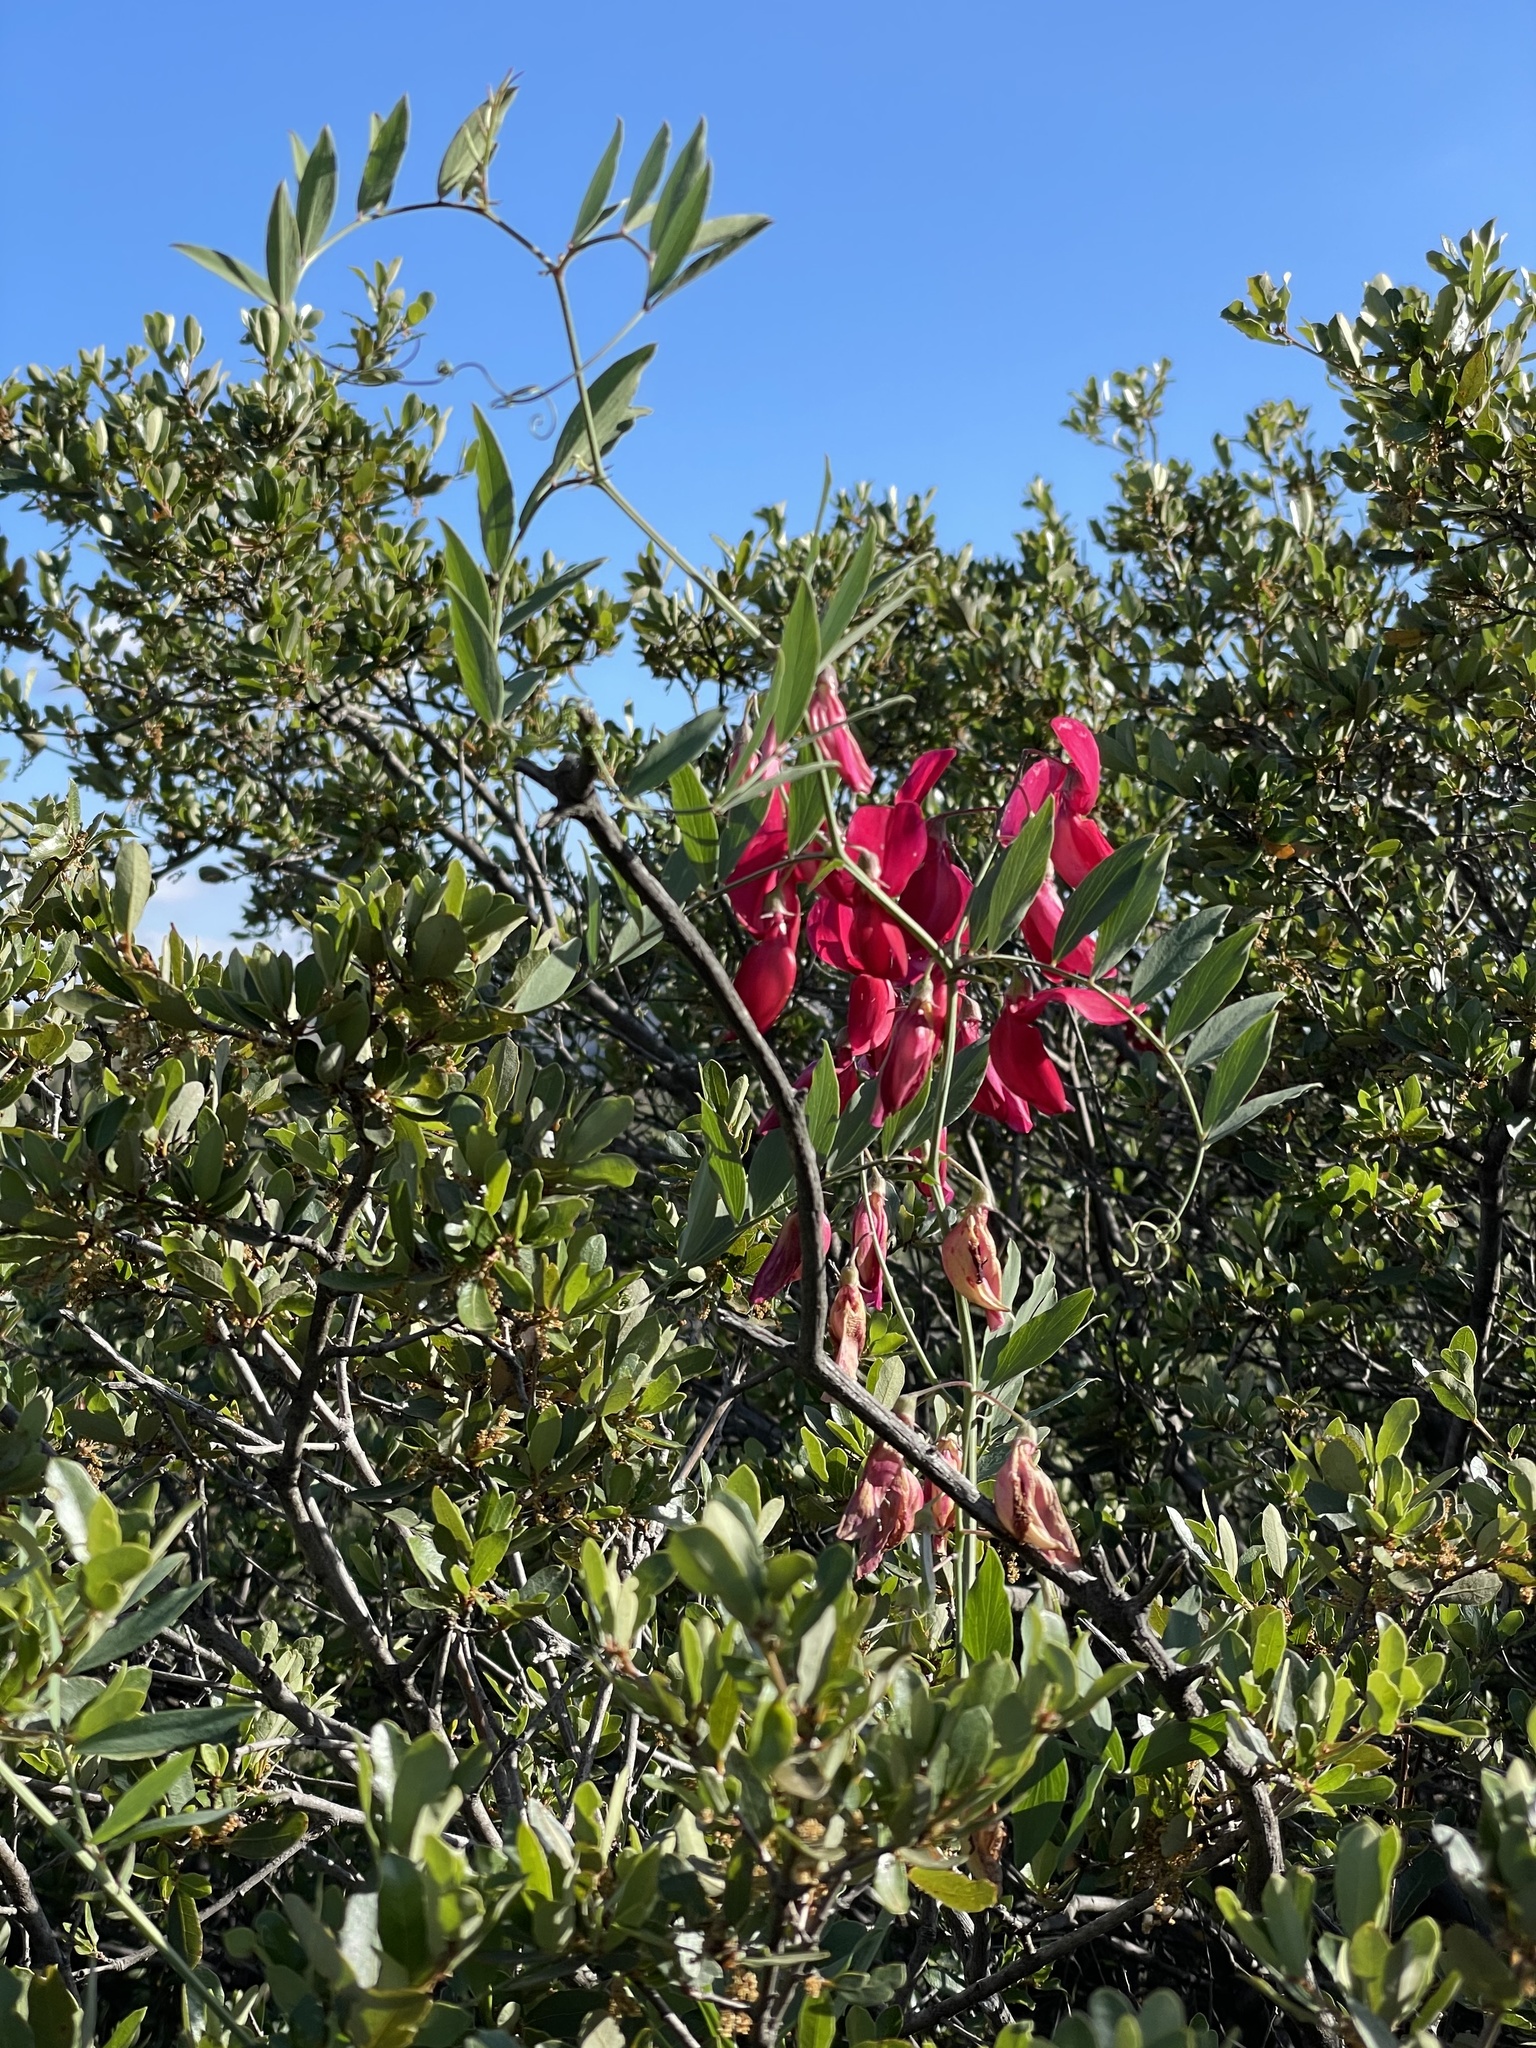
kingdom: Plantae
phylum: Tracheophyta
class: Magnoliopsida
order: Fabales
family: Fabaceae
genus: Lathyrus
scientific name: Lathyrus splendens
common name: Campo-pea
